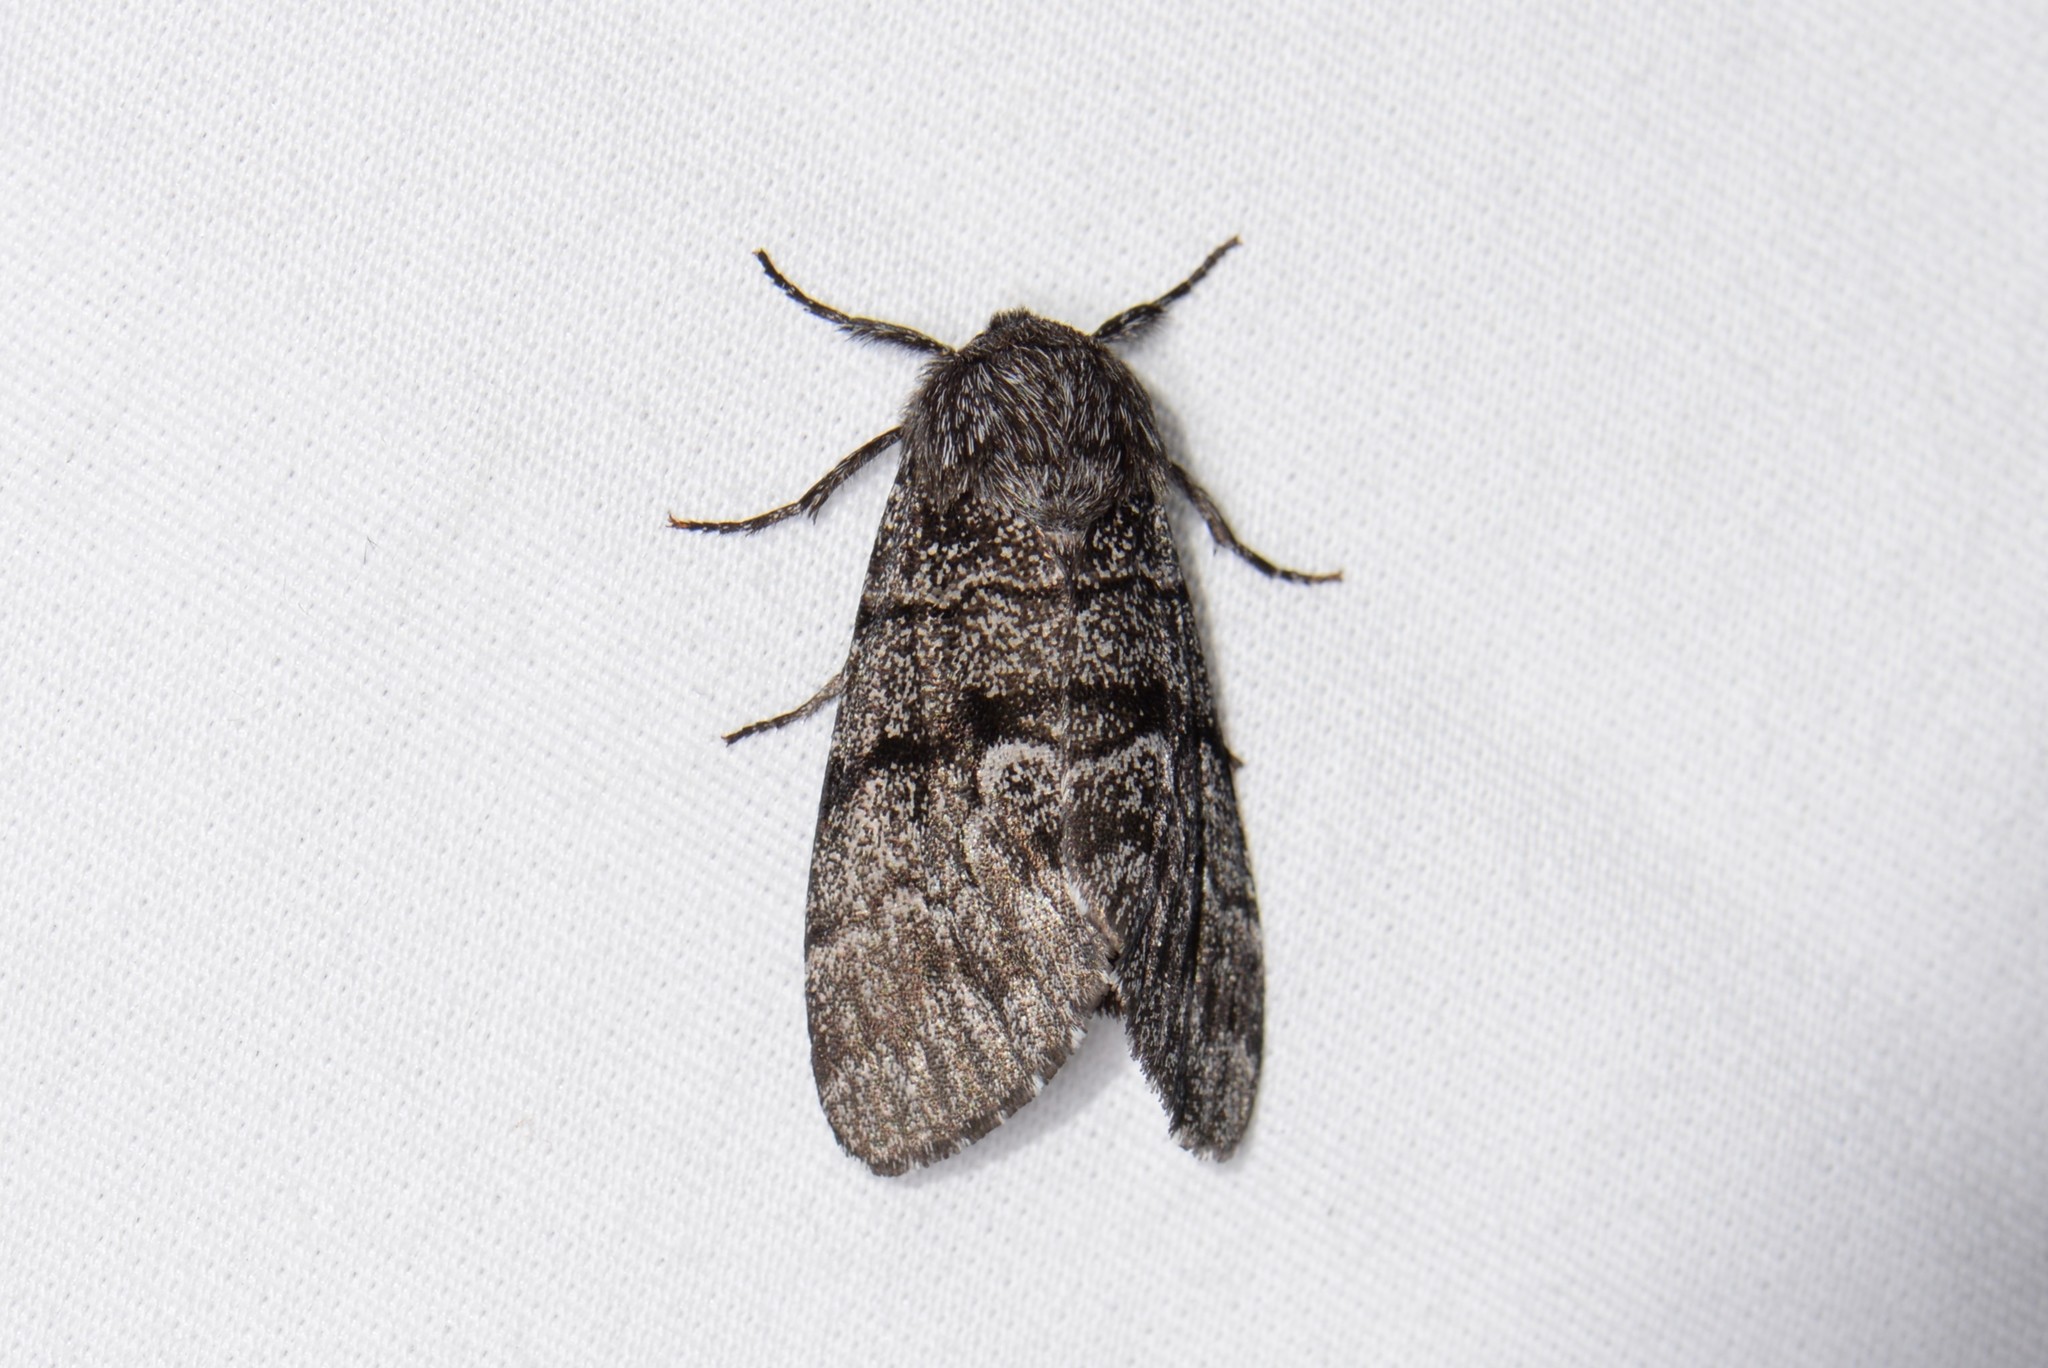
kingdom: Animalia
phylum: Arthropoda
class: Insecta
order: Lepidoptera
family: Noctuidae
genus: Panthea
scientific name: Panthea furcilla
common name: Eastern panthea moth
